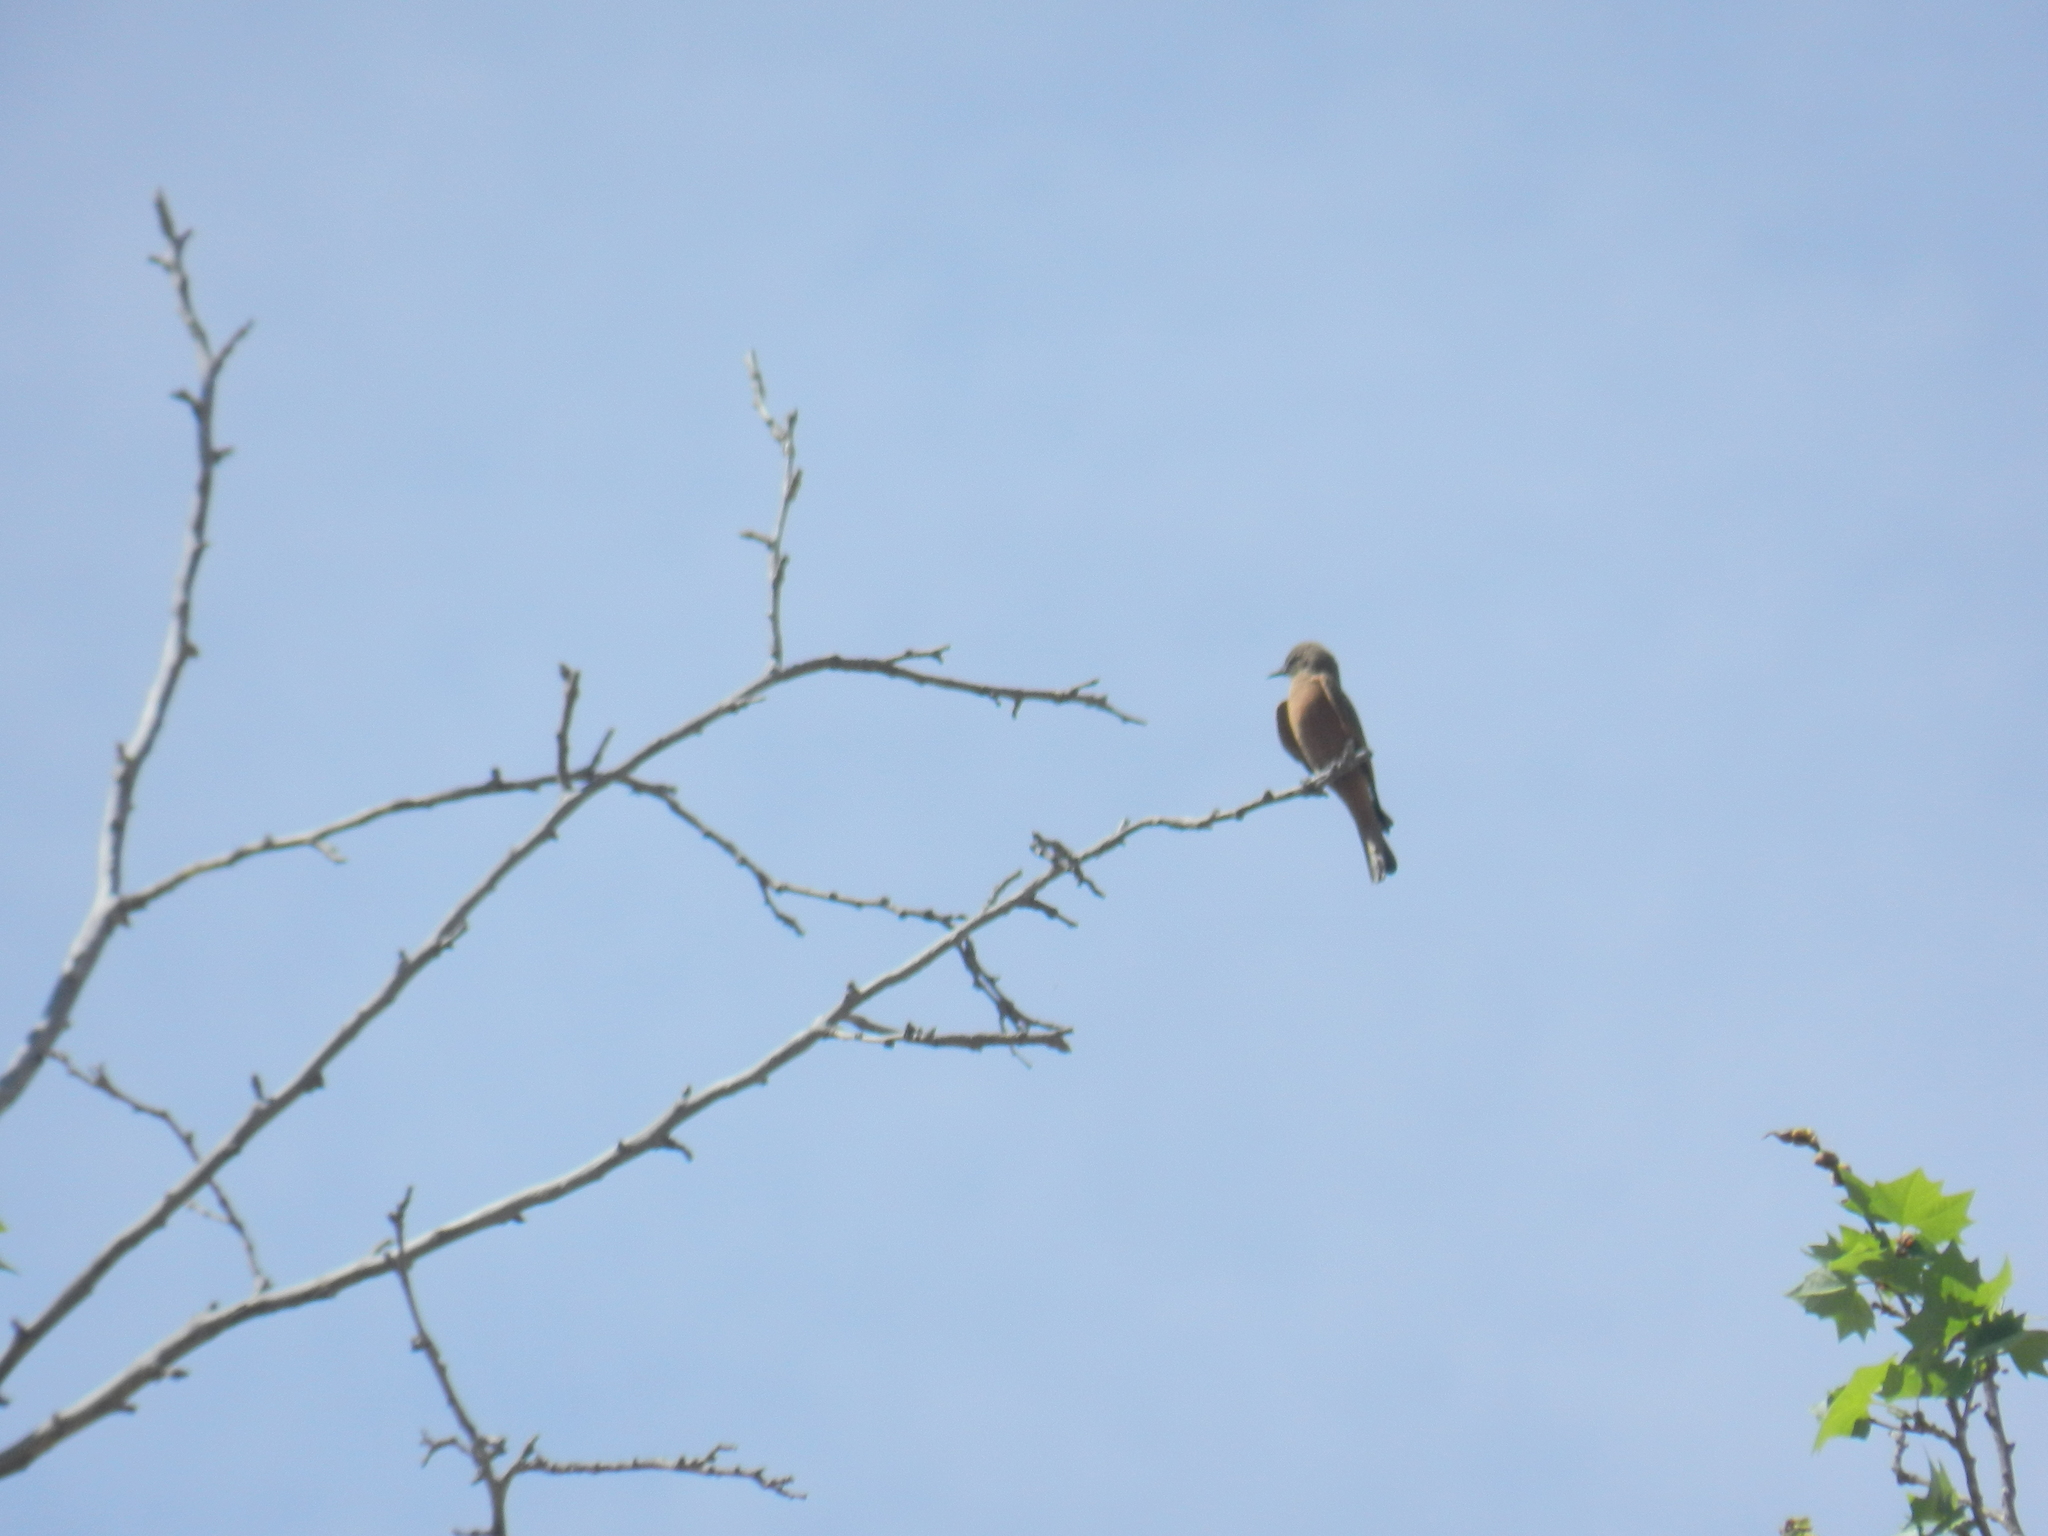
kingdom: Animalia
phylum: Chordata
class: Aves
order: Passeriformes
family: Tyrannidae
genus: Hirundinea
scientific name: Hirundinea ferruginea
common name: Cliff flycatcher
